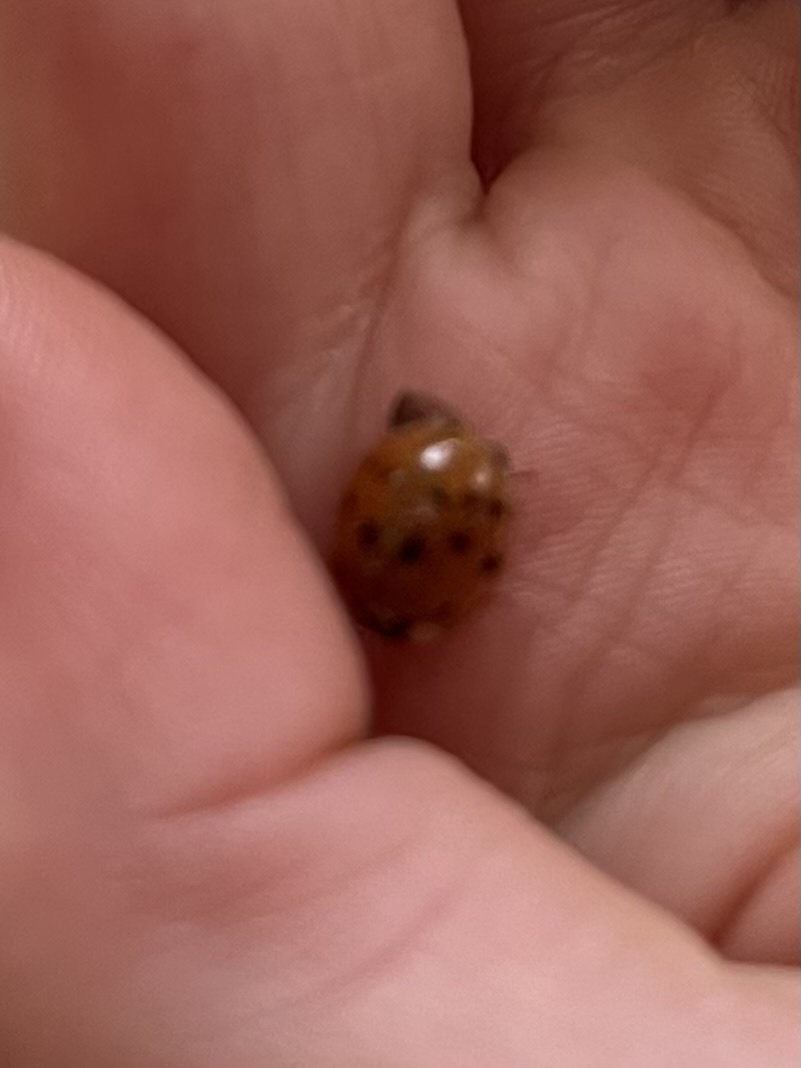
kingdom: Animalia
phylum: Arthropoda
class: Insecta
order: Coleoptera
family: Coccinellidae
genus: Harmonia
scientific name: Harmonia axyridis
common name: Harlequin ladybird
